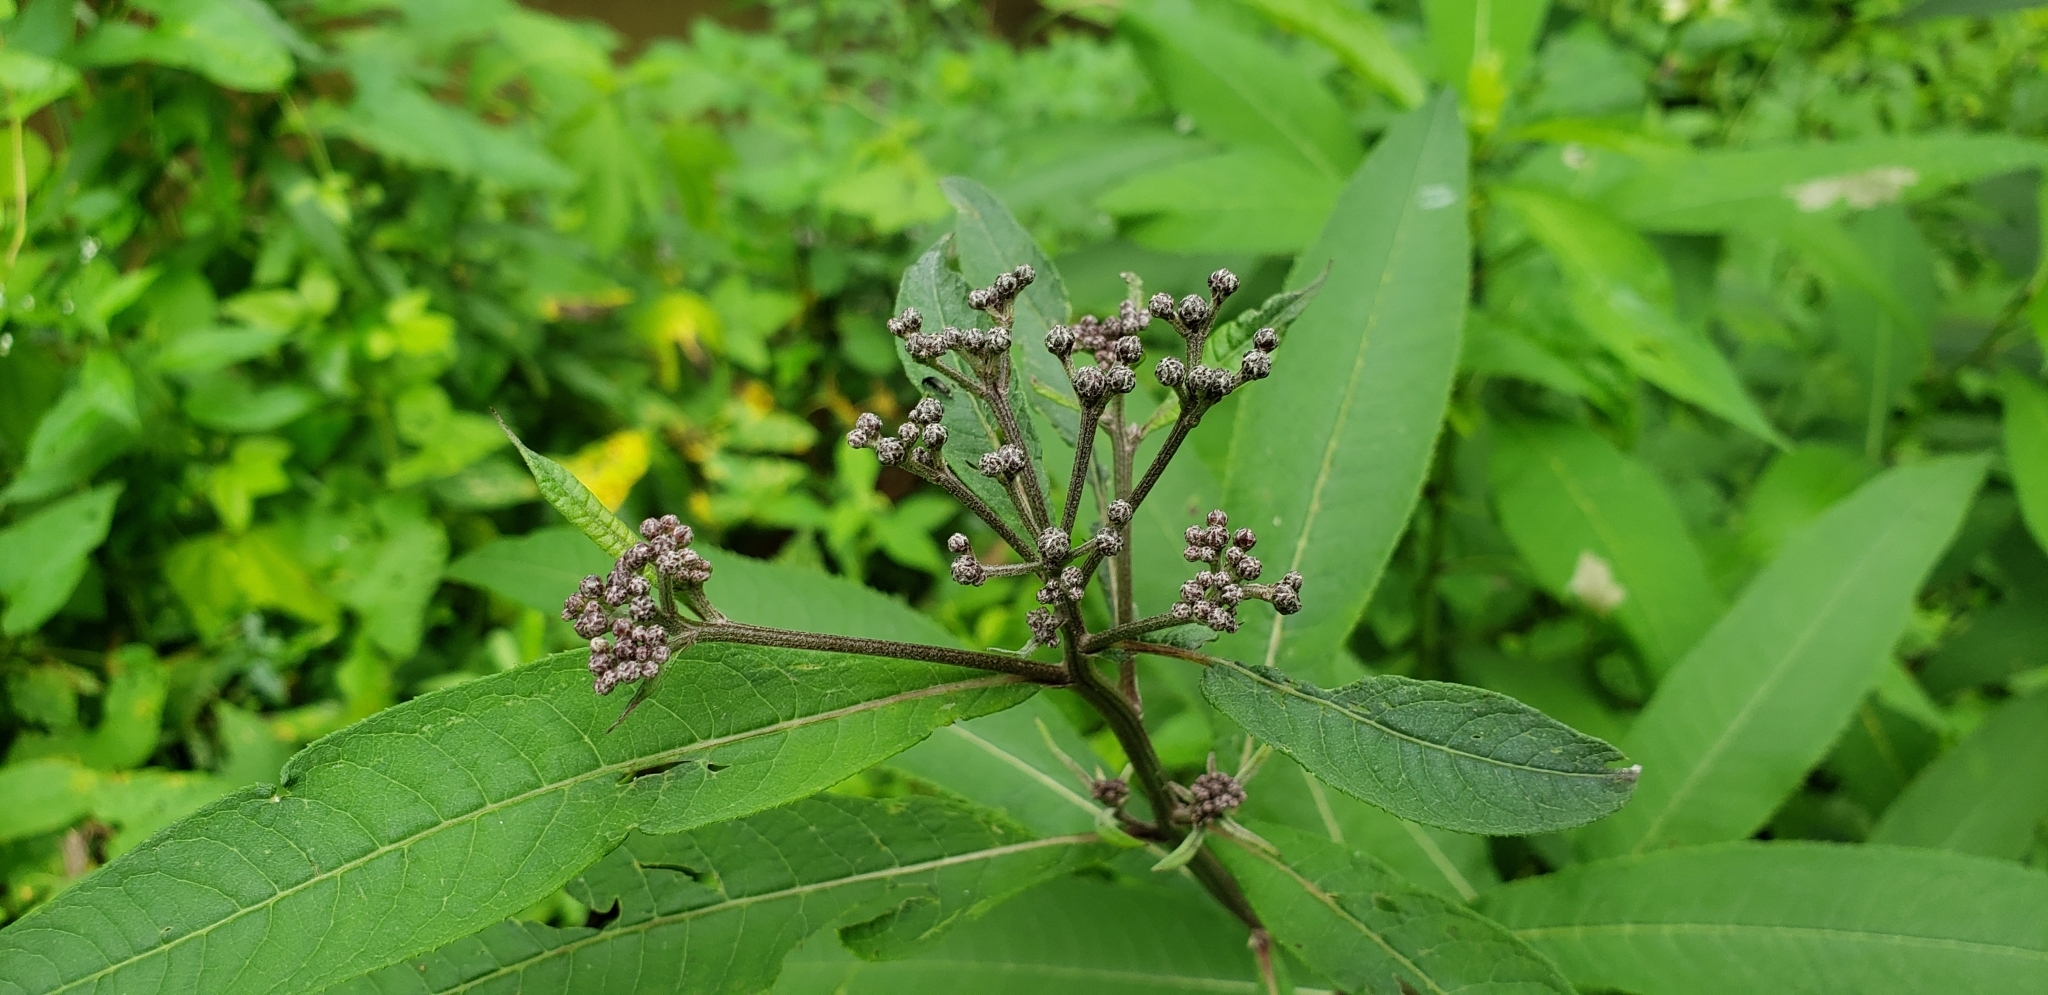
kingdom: Plantae
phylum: Tracheophyta
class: Magnoliopsida
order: Asterales
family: Asteraceae
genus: Eutrochium
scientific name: Eutrochium fistulosum
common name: Trumpetweed
